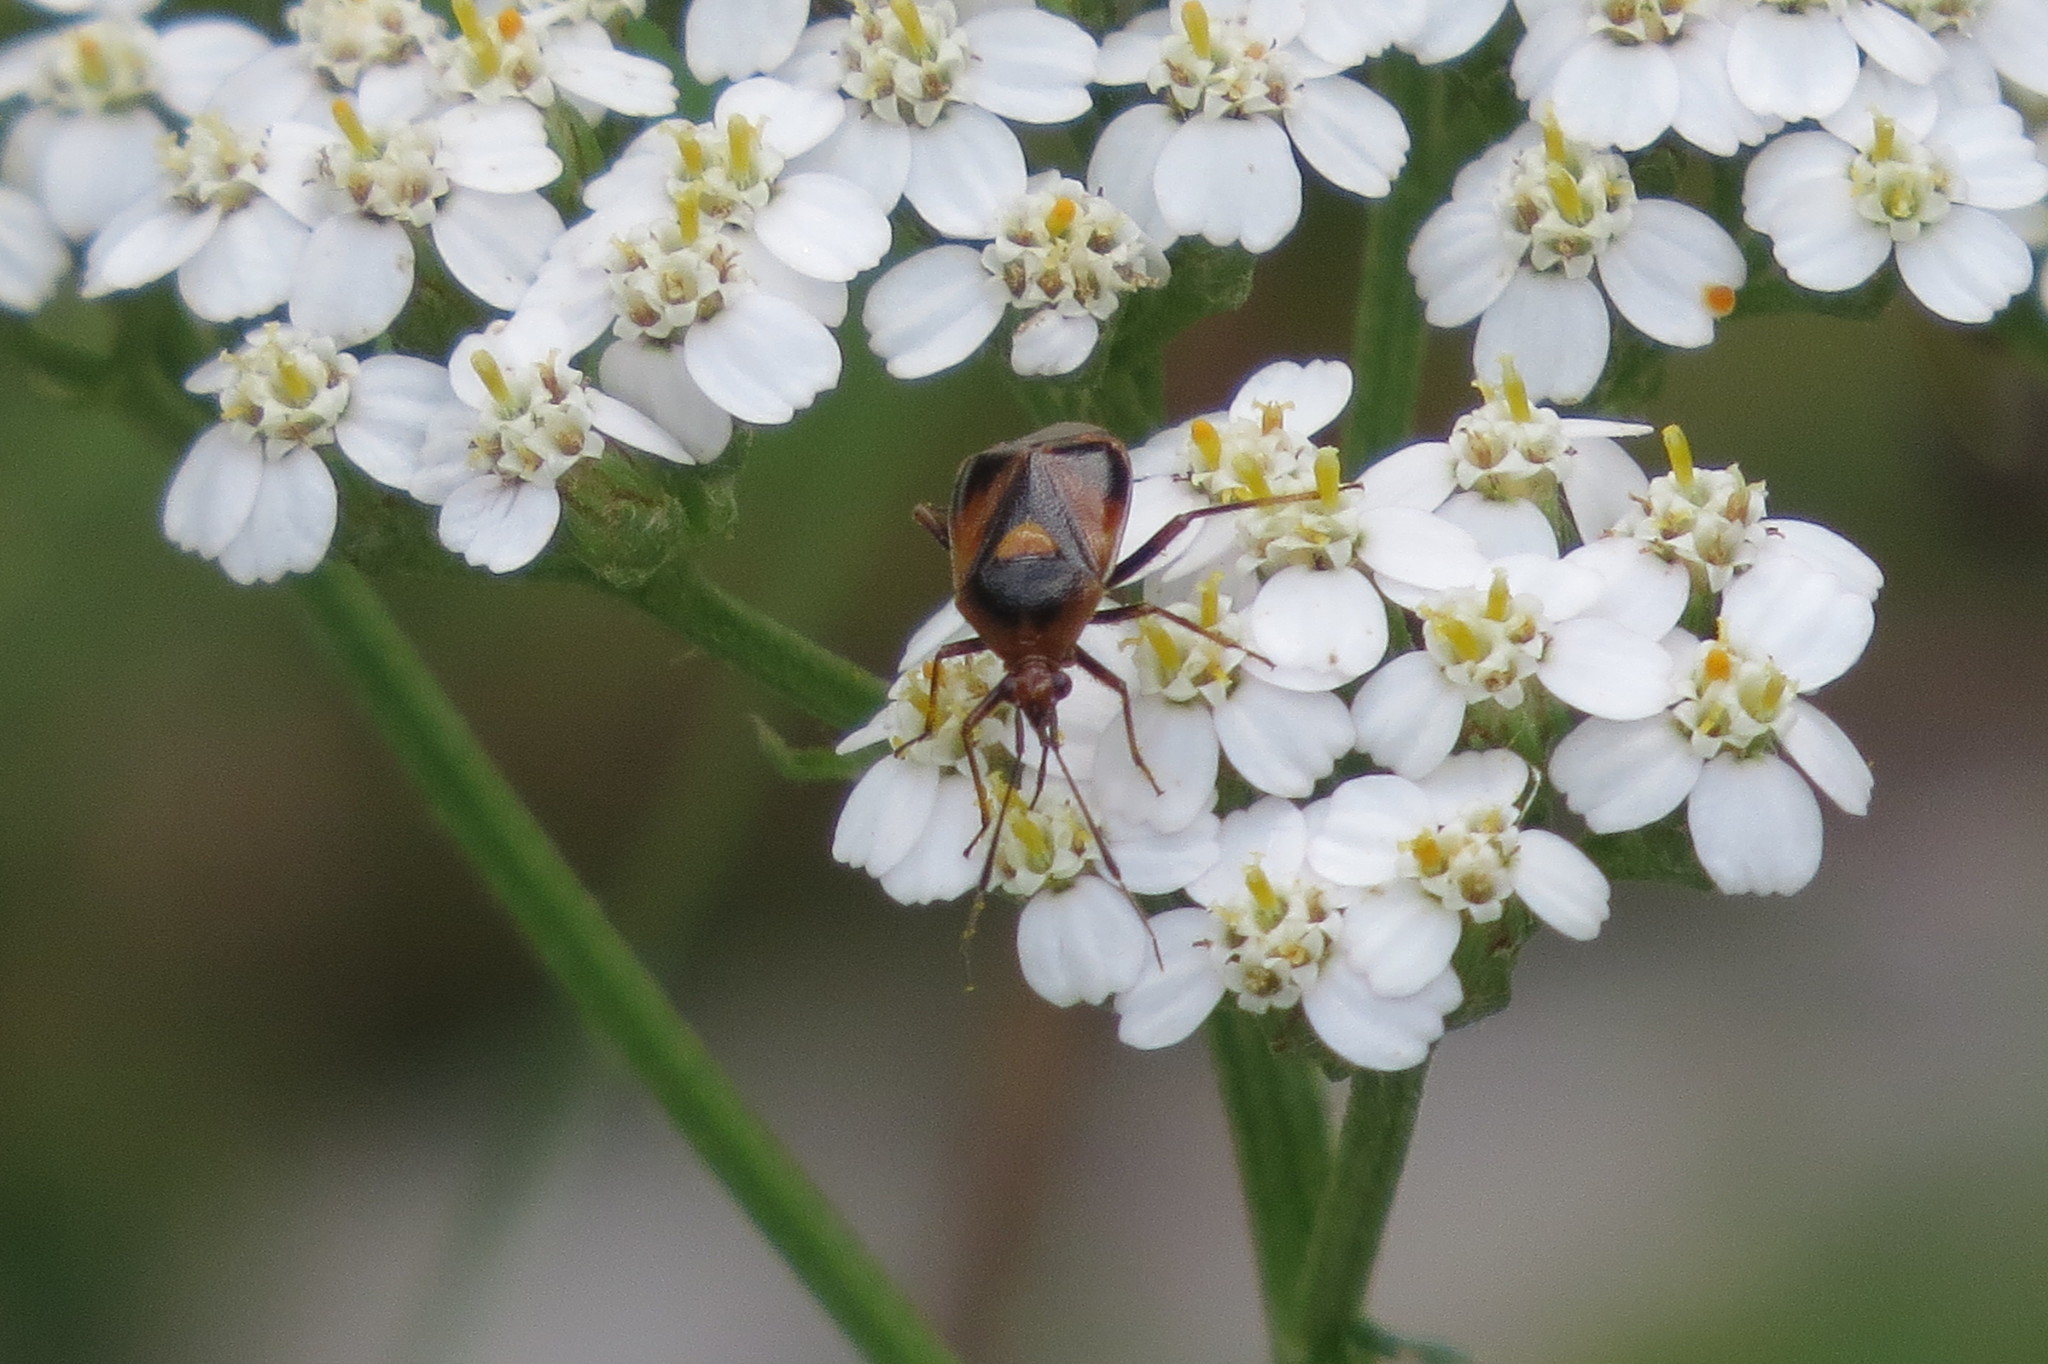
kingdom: Animalia
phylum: Arthropoda
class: Insecta
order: Hemiptera
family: Miridae
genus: Deraeocoris
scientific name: Deraeocoris ruber
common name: Plant bug
